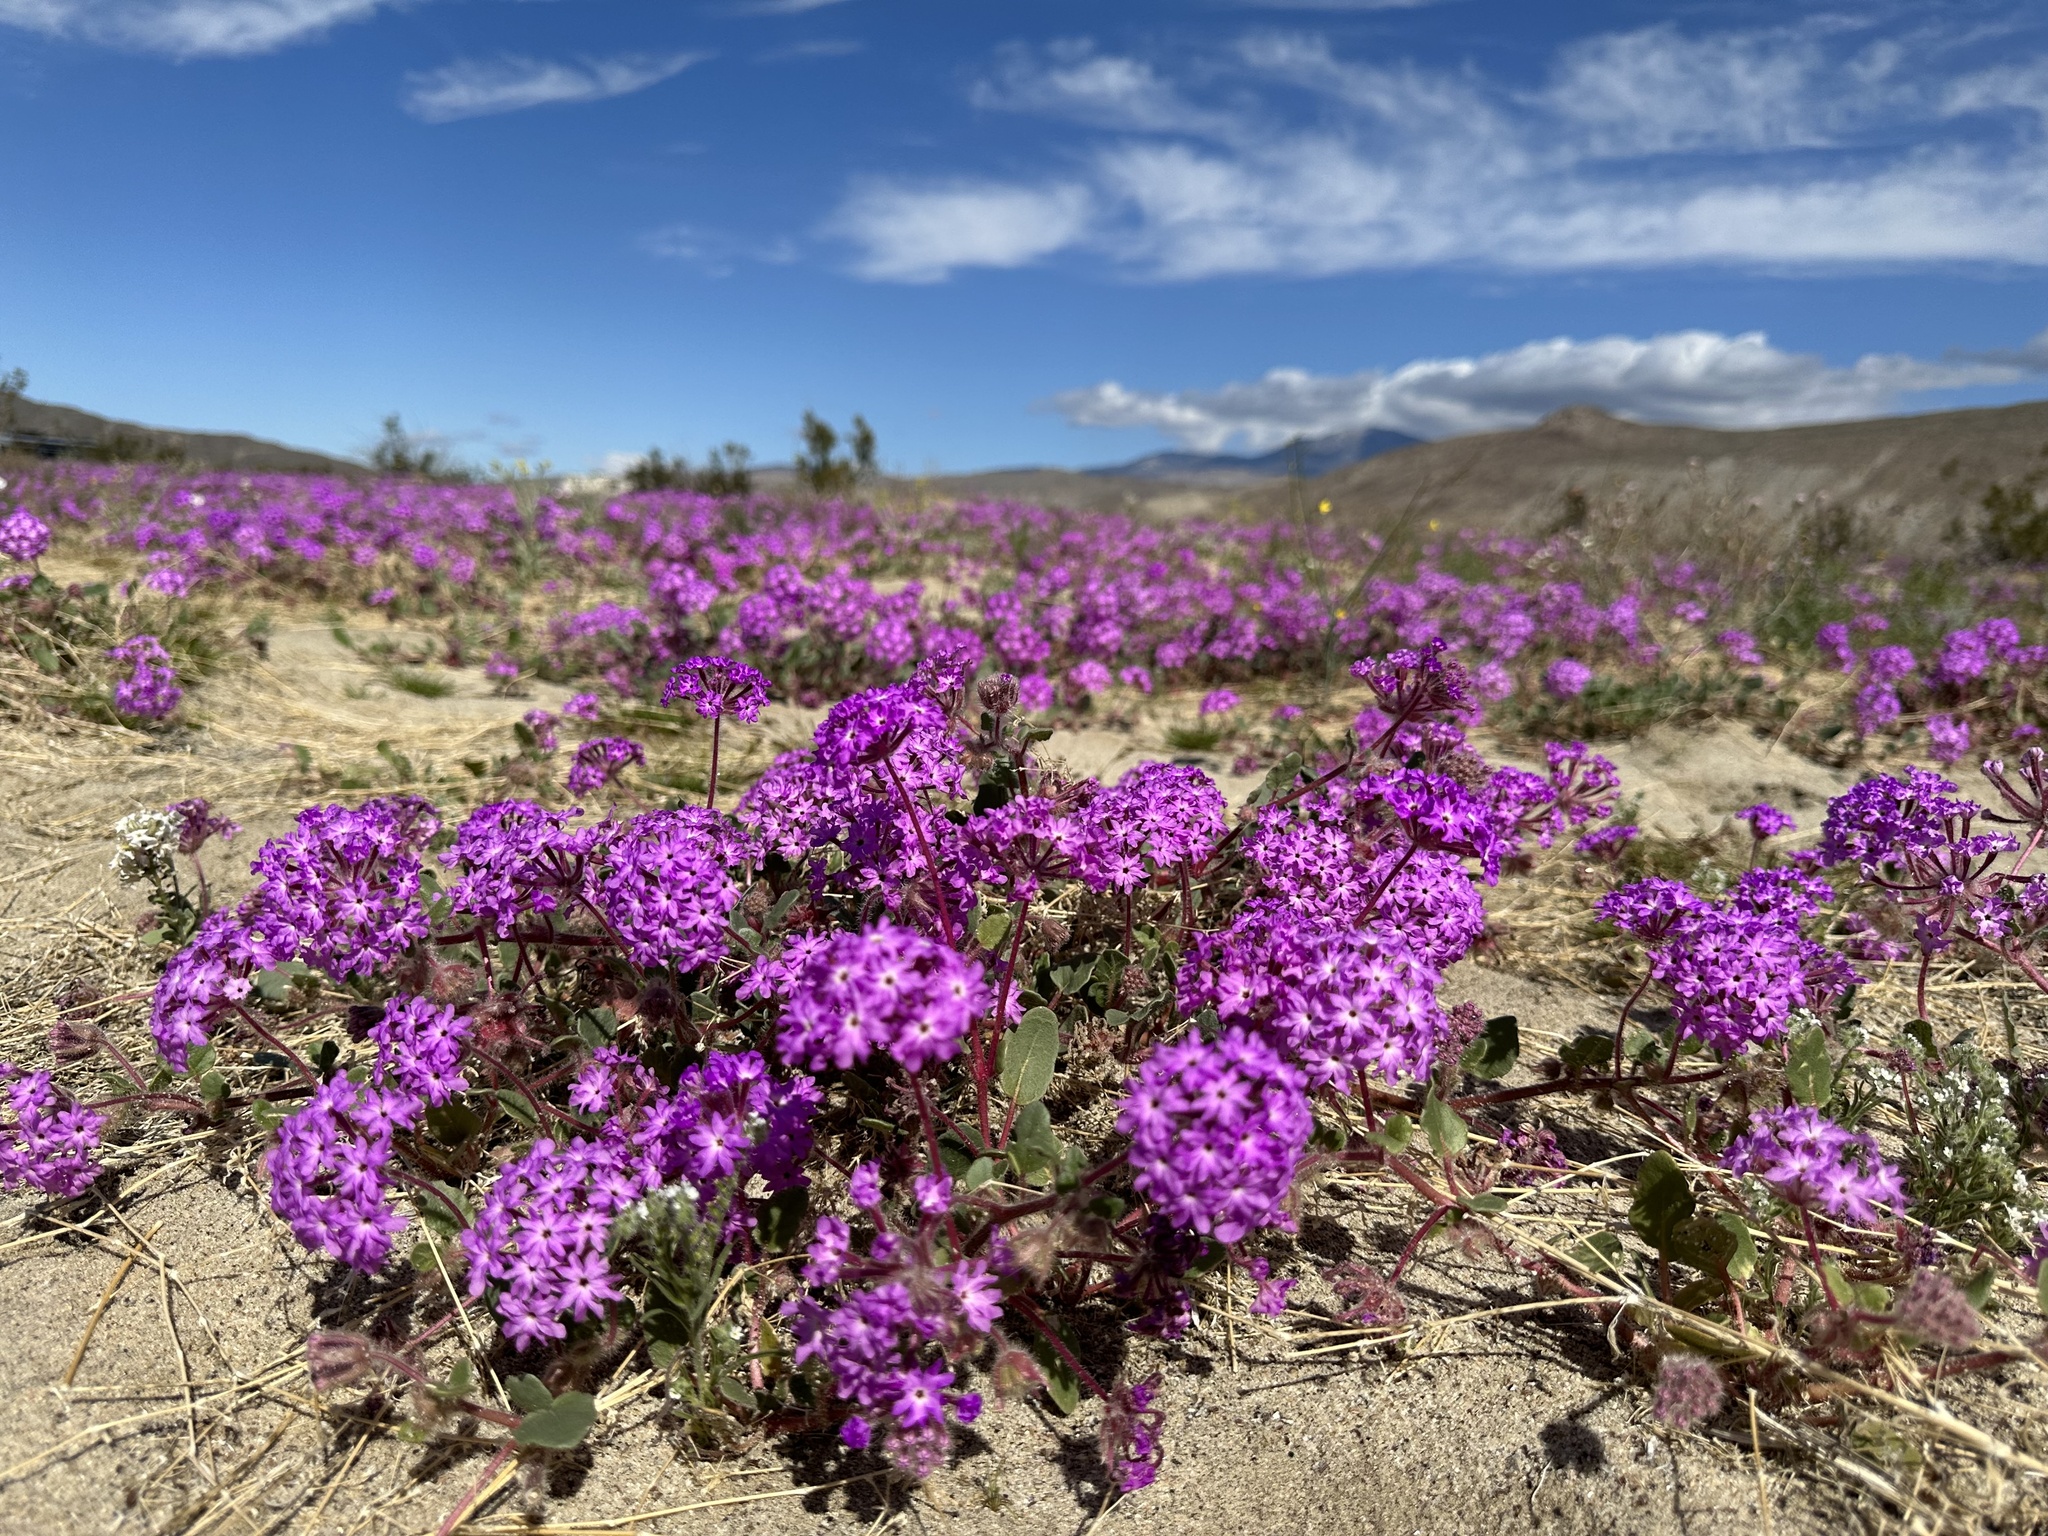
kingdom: Plantae
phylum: Tracheophyta
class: Magnoliopsida
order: Caryophyllales
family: Nyctaginaceae
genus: Abronia
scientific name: Abronia villosa
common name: Desert sand-verbena
